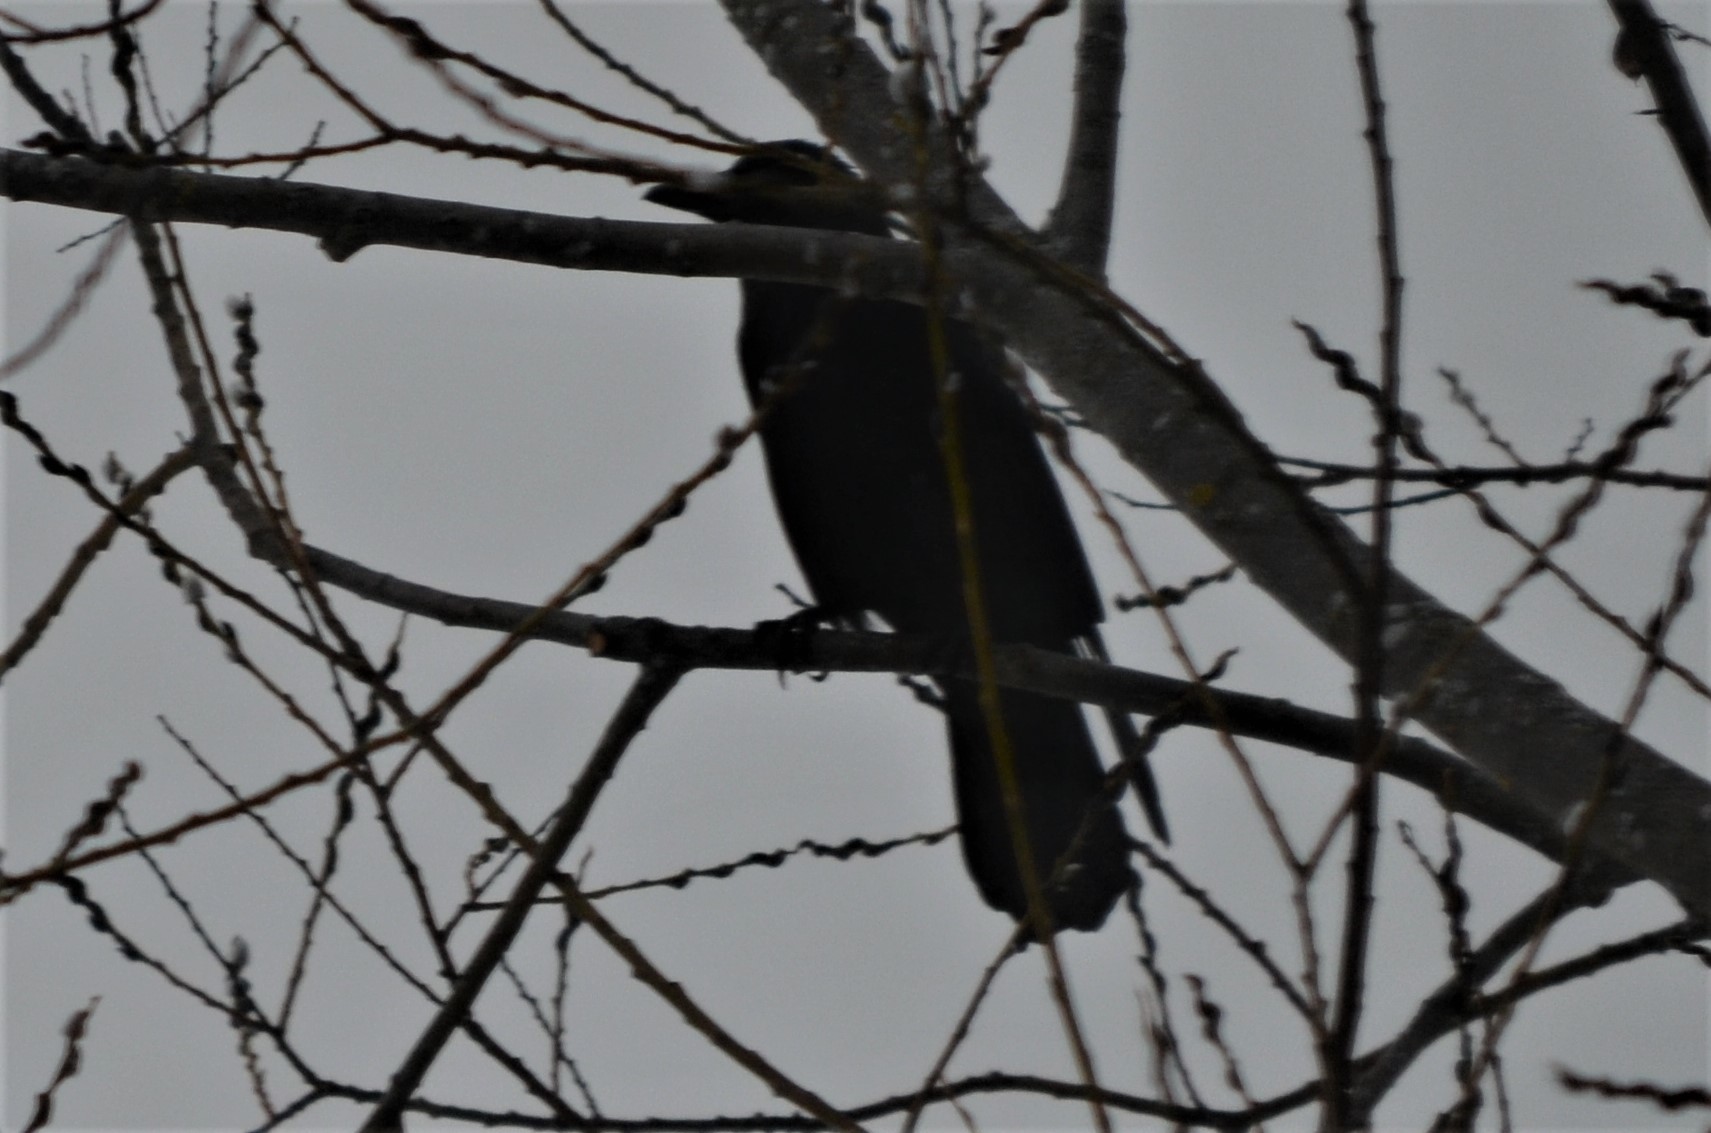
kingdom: Animalia
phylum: Chordata
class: Aves
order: Passeriformes
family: Corvidae
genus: Corvus
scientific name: Corvus corone
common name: Carrion crow
